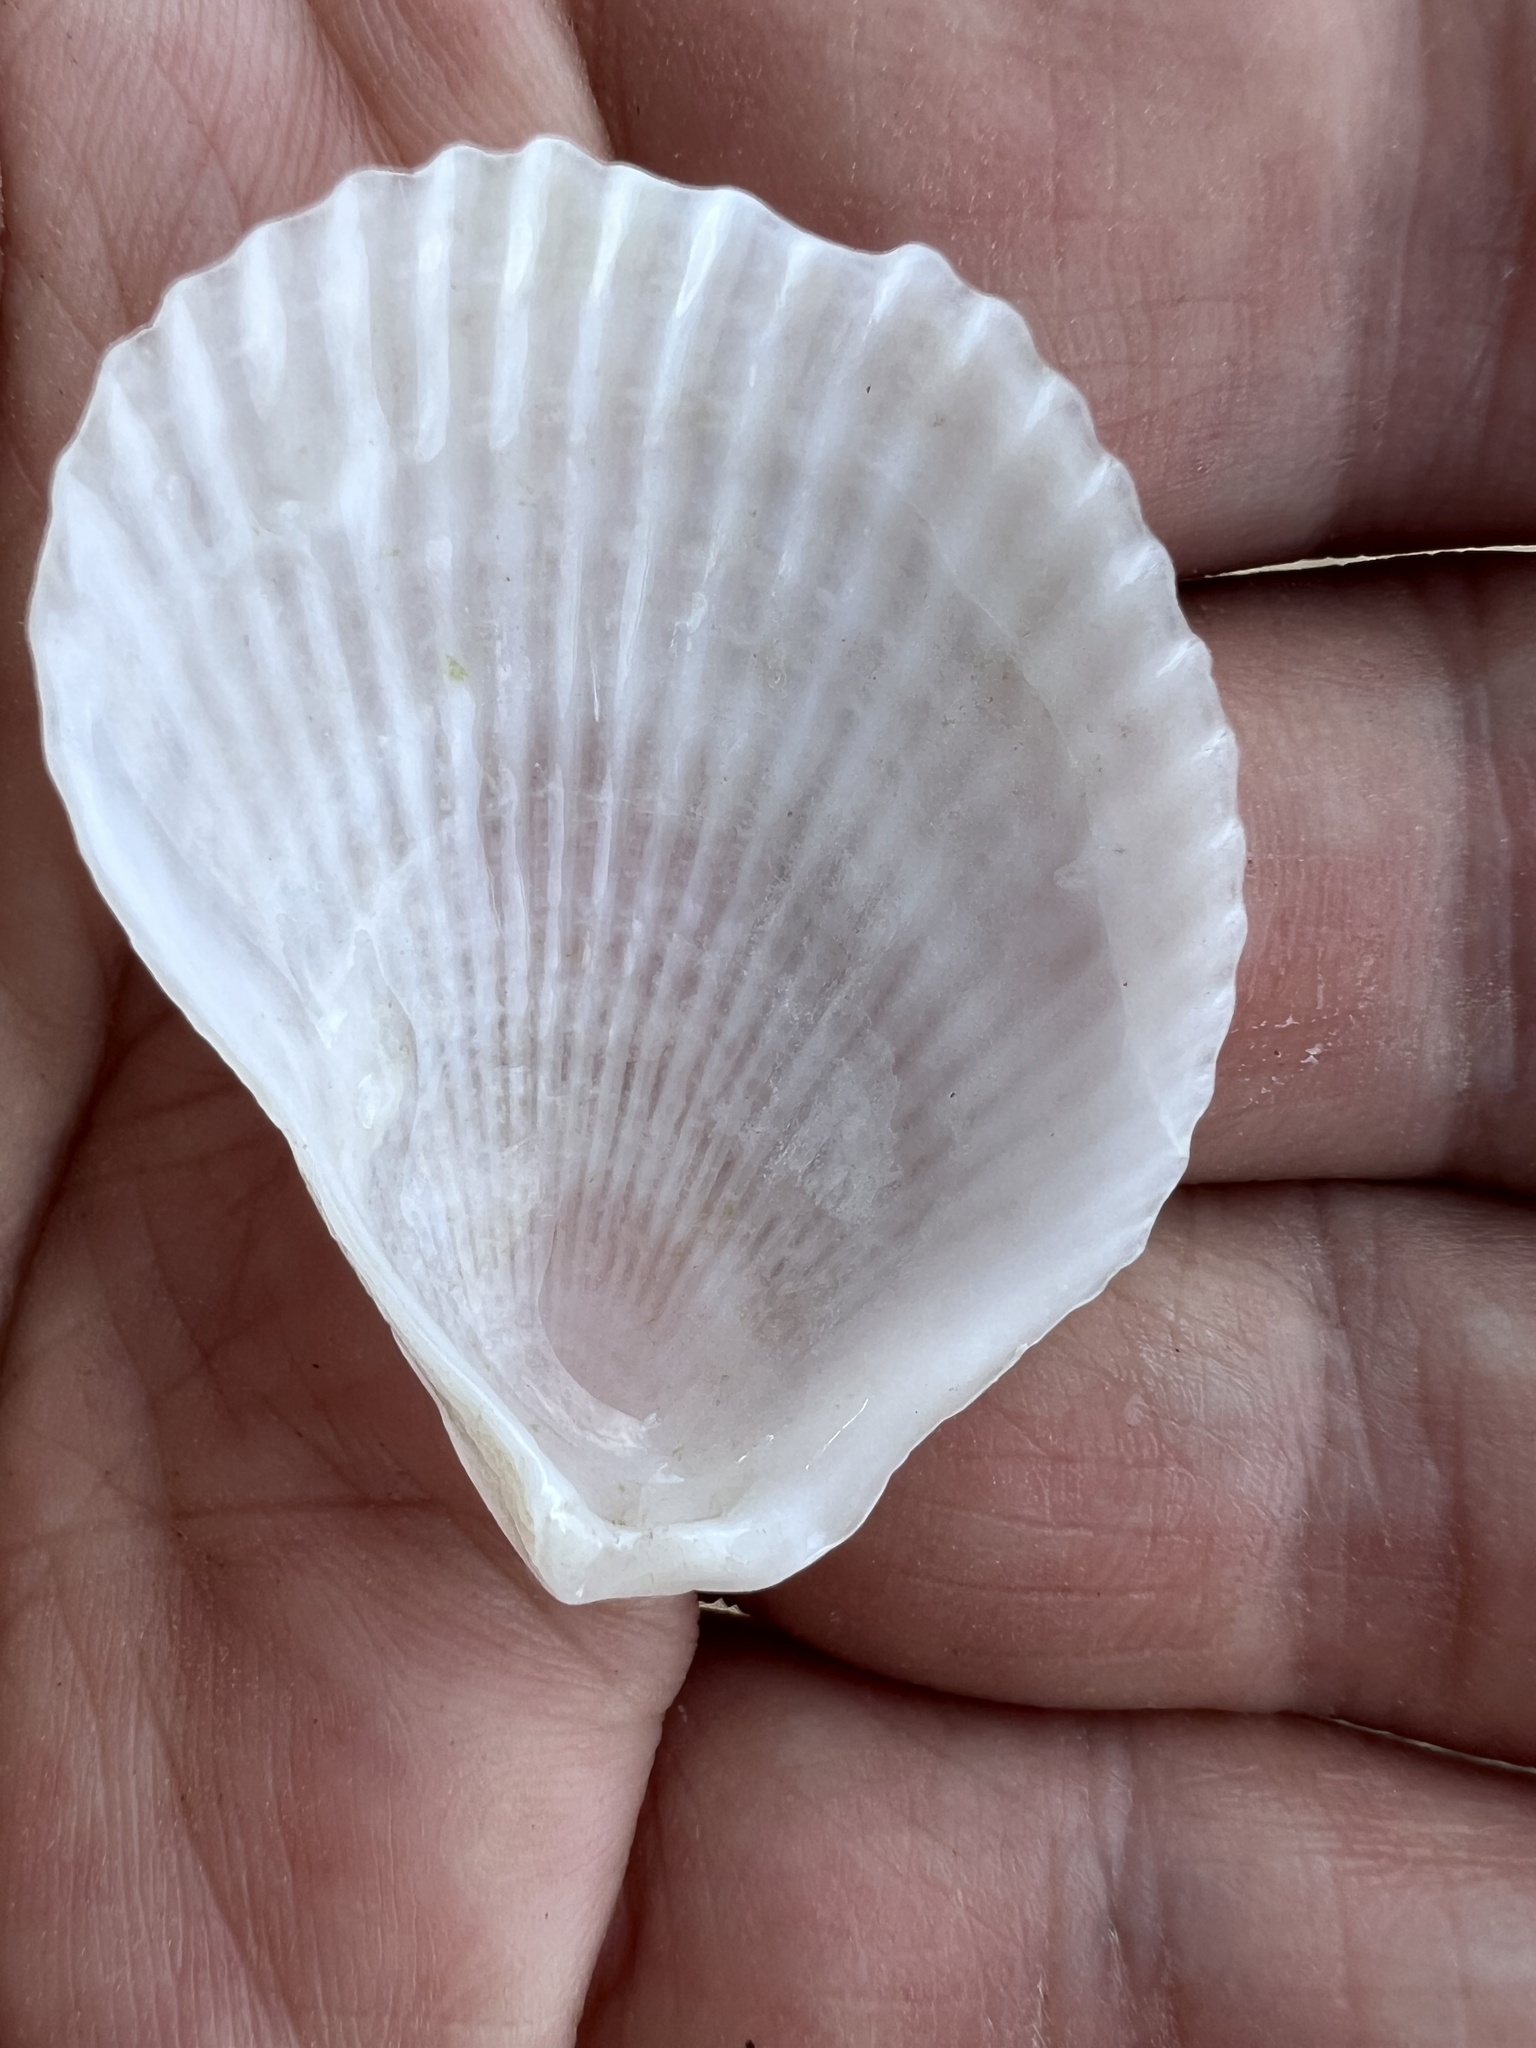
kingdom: Animalia
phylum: Mollusca
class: Bivalvia
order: Limida
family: Limidae
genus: Lima
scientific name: Lima caribaea
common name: Spiny file clam
